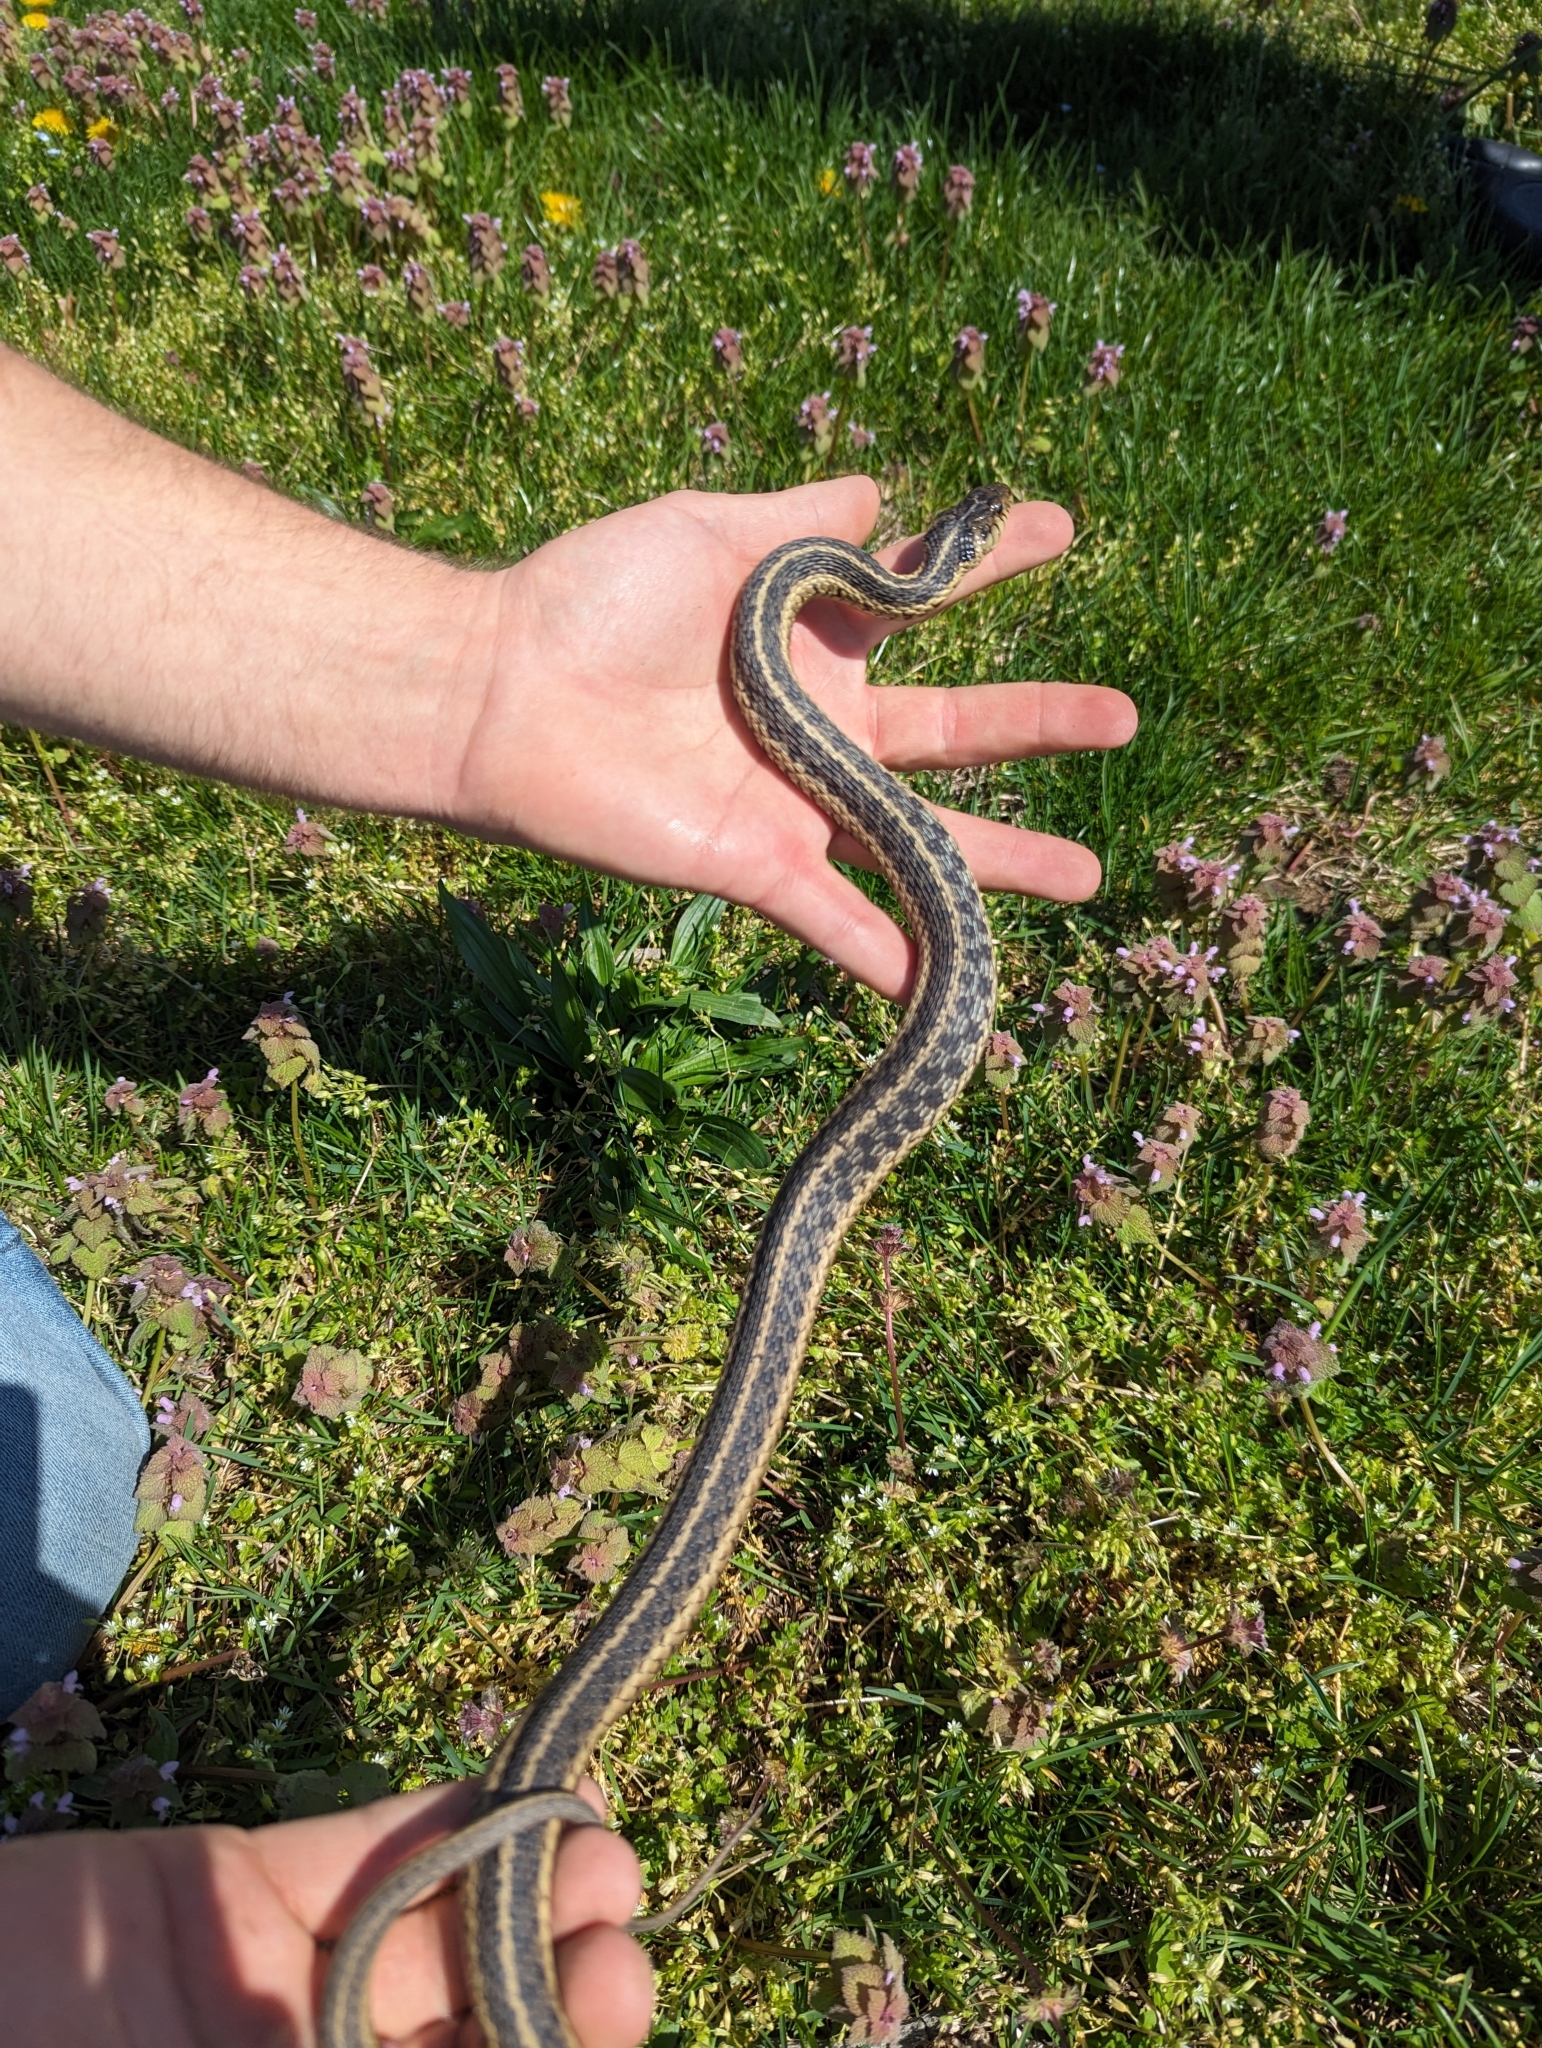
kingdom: Animalia
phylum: Chordata
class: Squamata
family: Colubridae
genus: Thamnophis
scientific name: Thamnophis sirtalis
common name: Common garter snake
